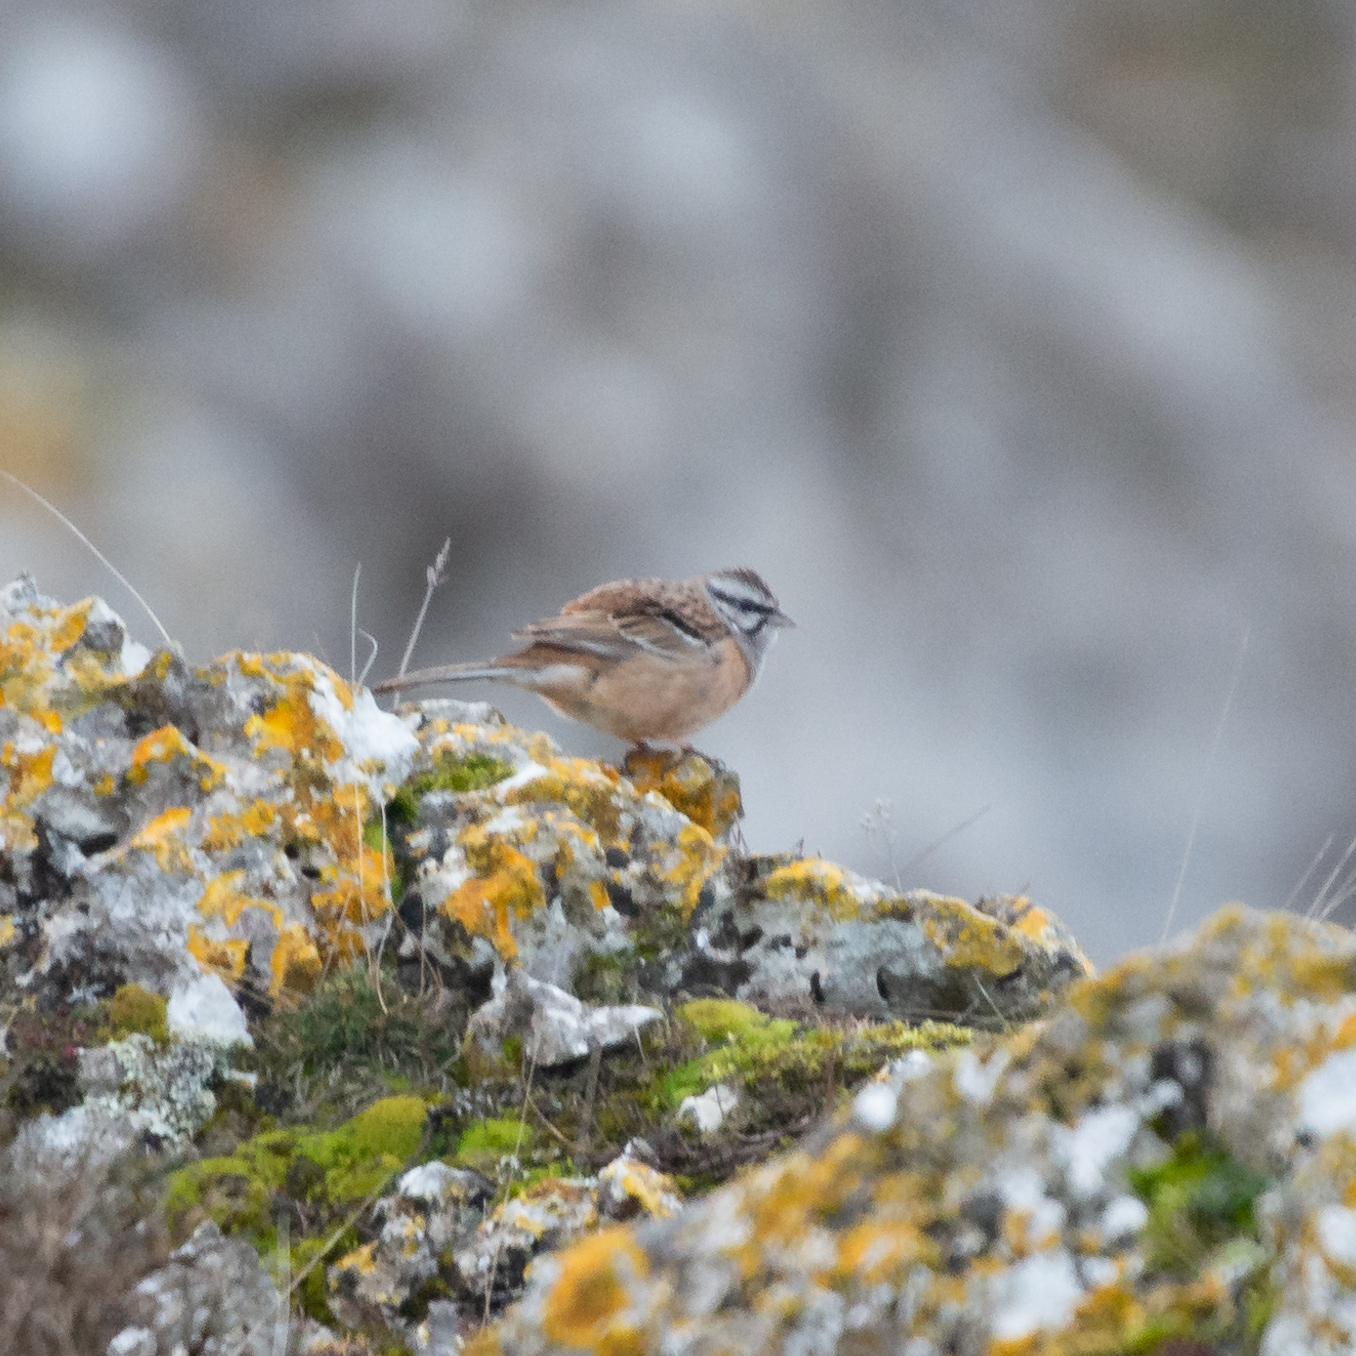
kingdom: Animalia
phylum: Chordata
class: Aves
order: Passeriformes
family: Emberizidae
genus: Emberiza
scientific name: Emberiza cia
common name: Rock bunting
